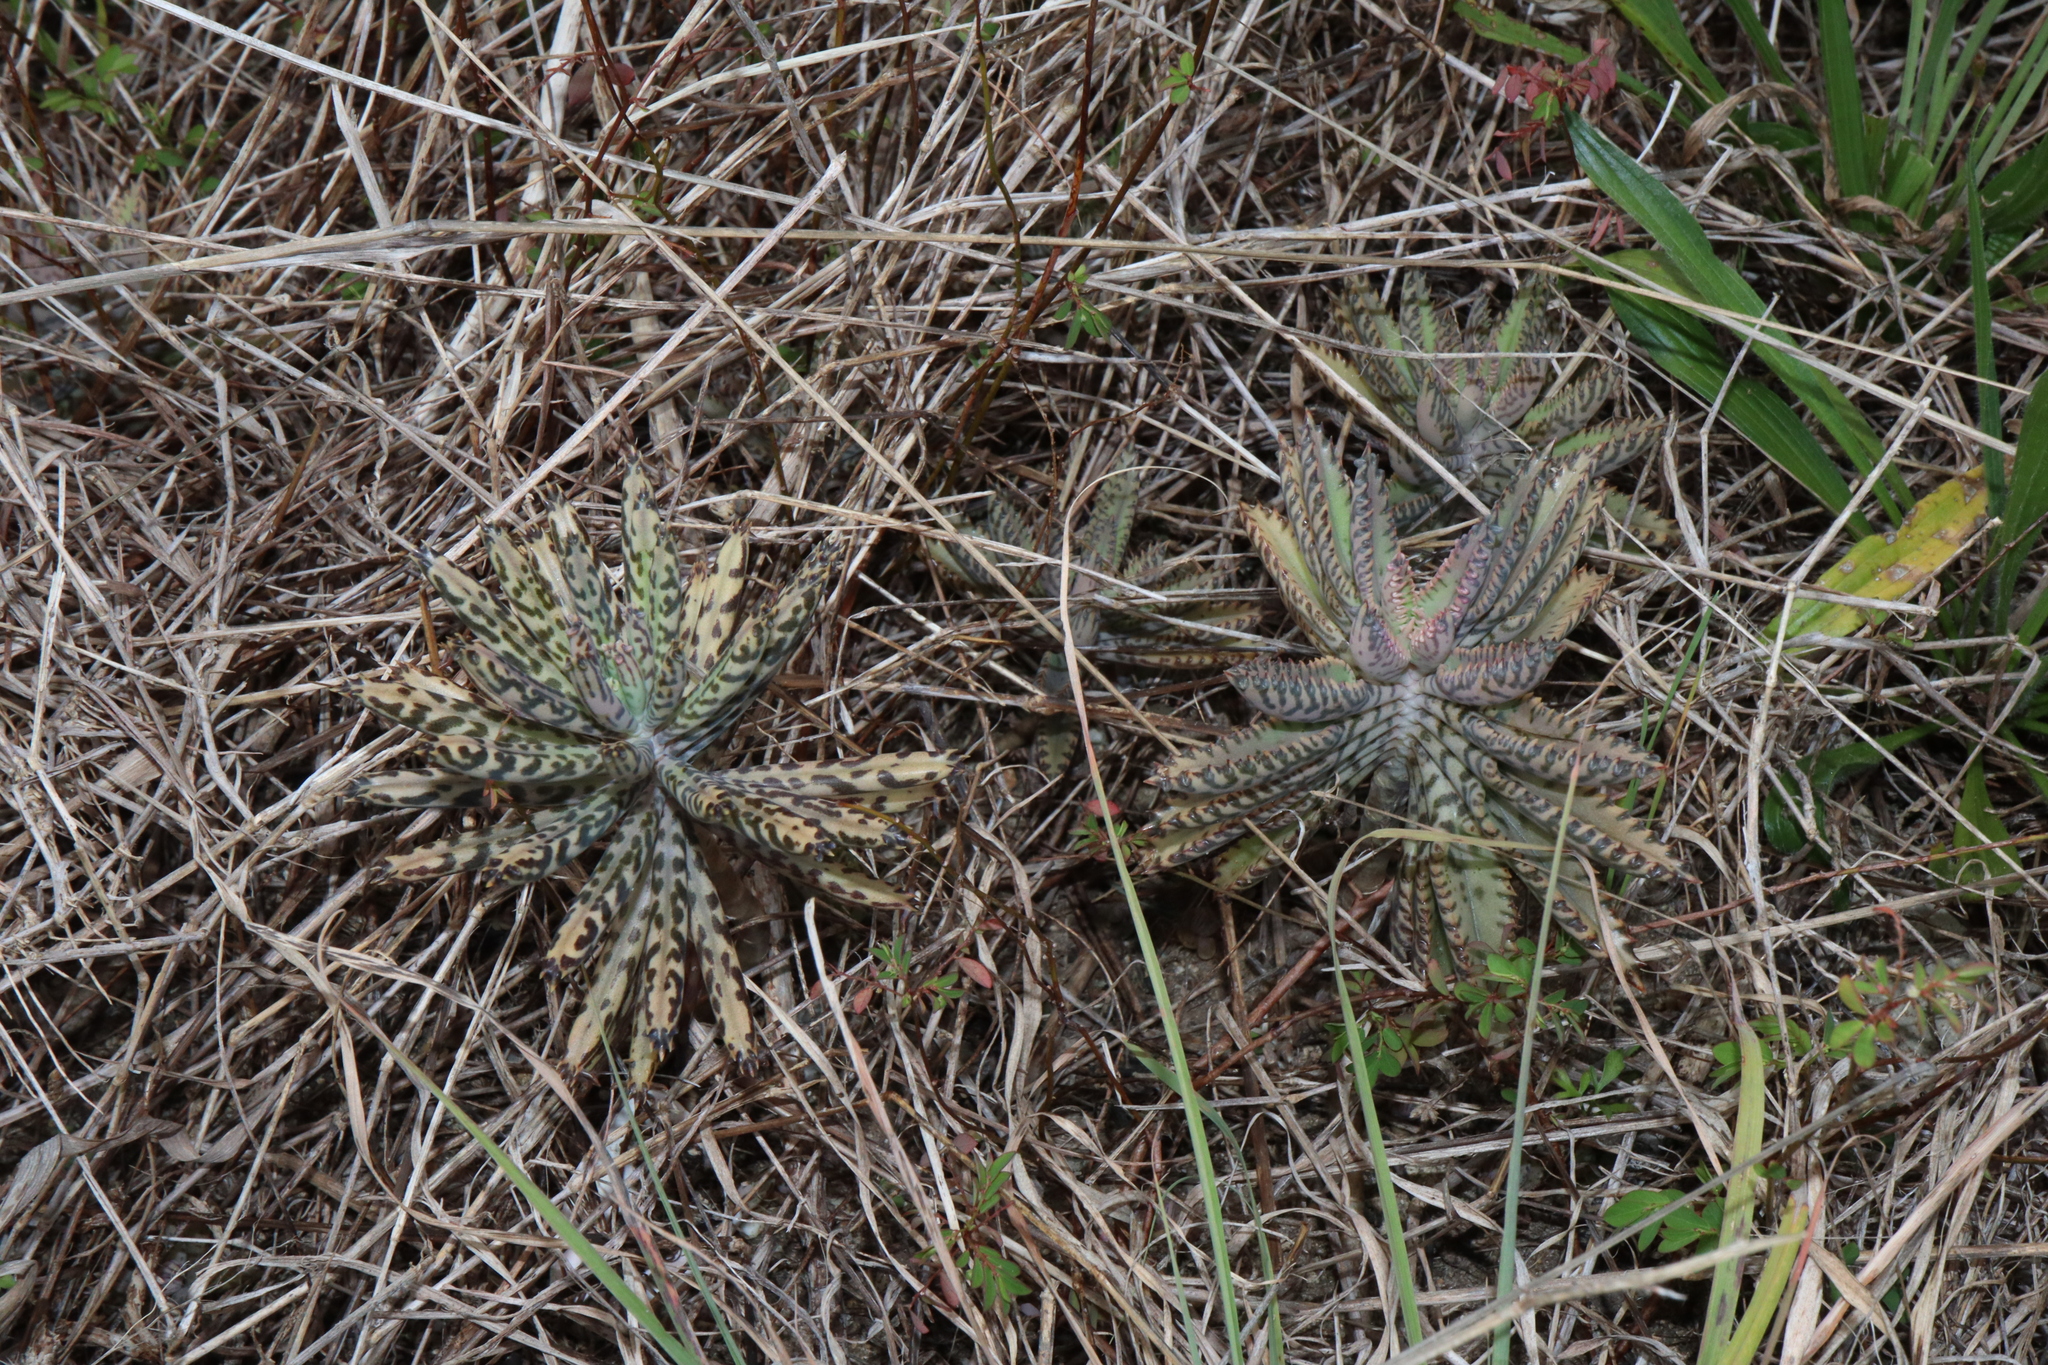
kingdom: Plantae
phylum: Tracheophyta
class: Magnoliopsida
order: Saxifragales
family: Crassulaceae
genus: Kalanchoe
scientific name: Kalanchoe delagoensis
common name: Chandelier plant
